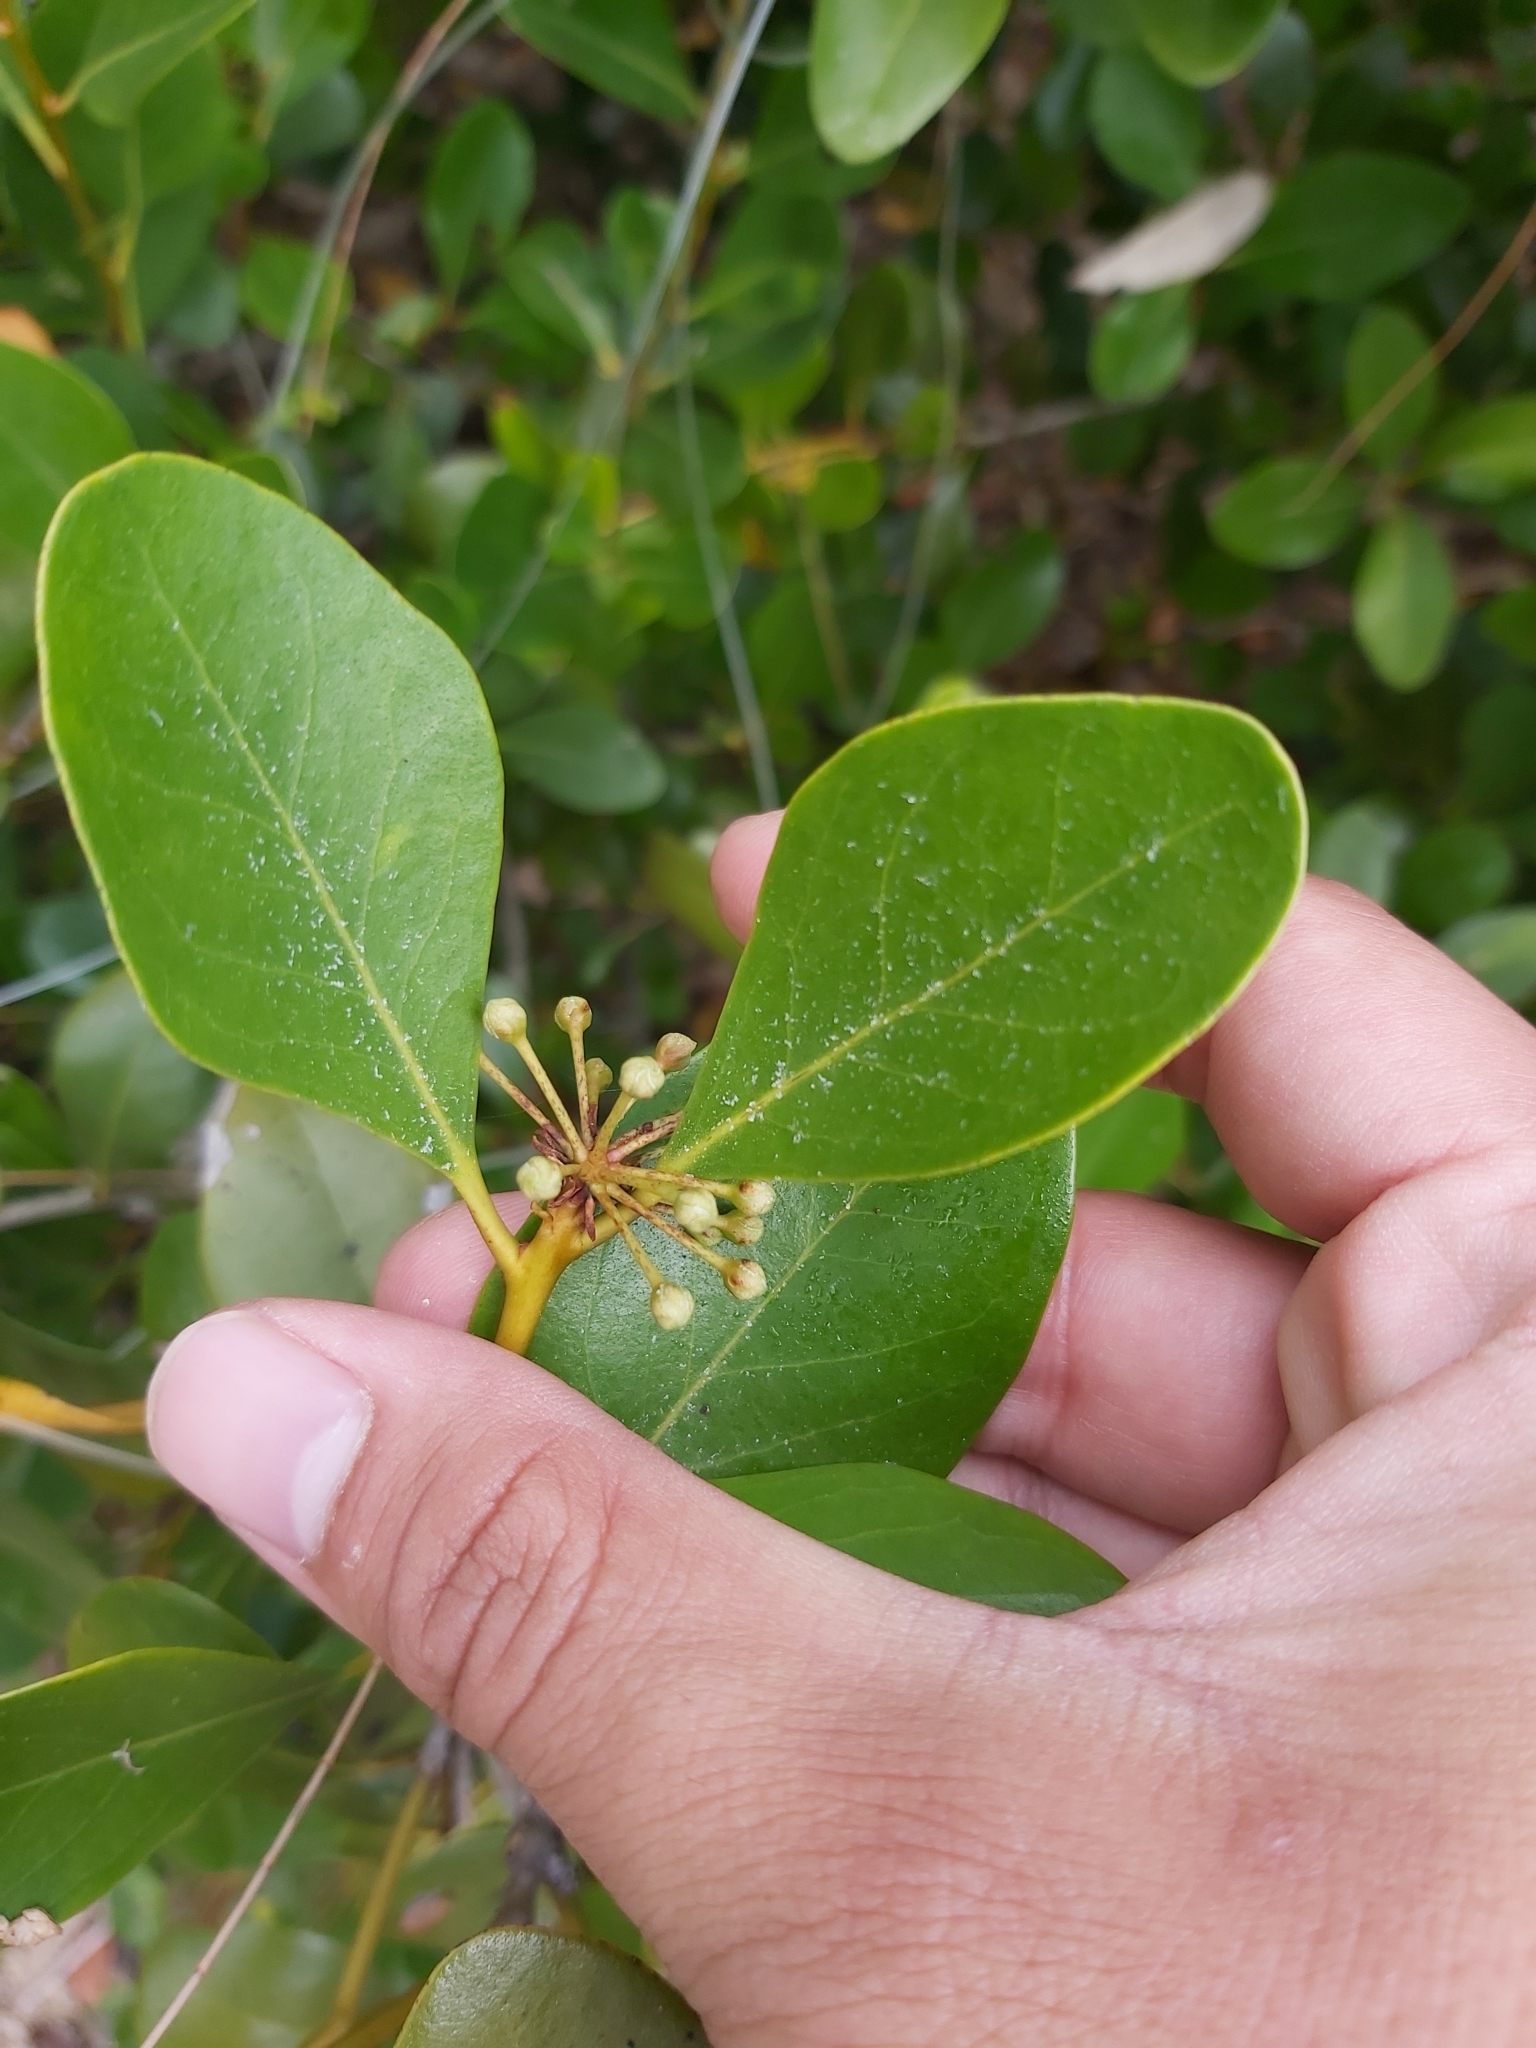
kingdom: Plantae
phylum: Tracheophyta
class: Magnoliopsida
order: Ericales
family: Primulaceae
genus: Aegiceras
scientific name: Aegiceras corniculatum
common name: River mangrove
